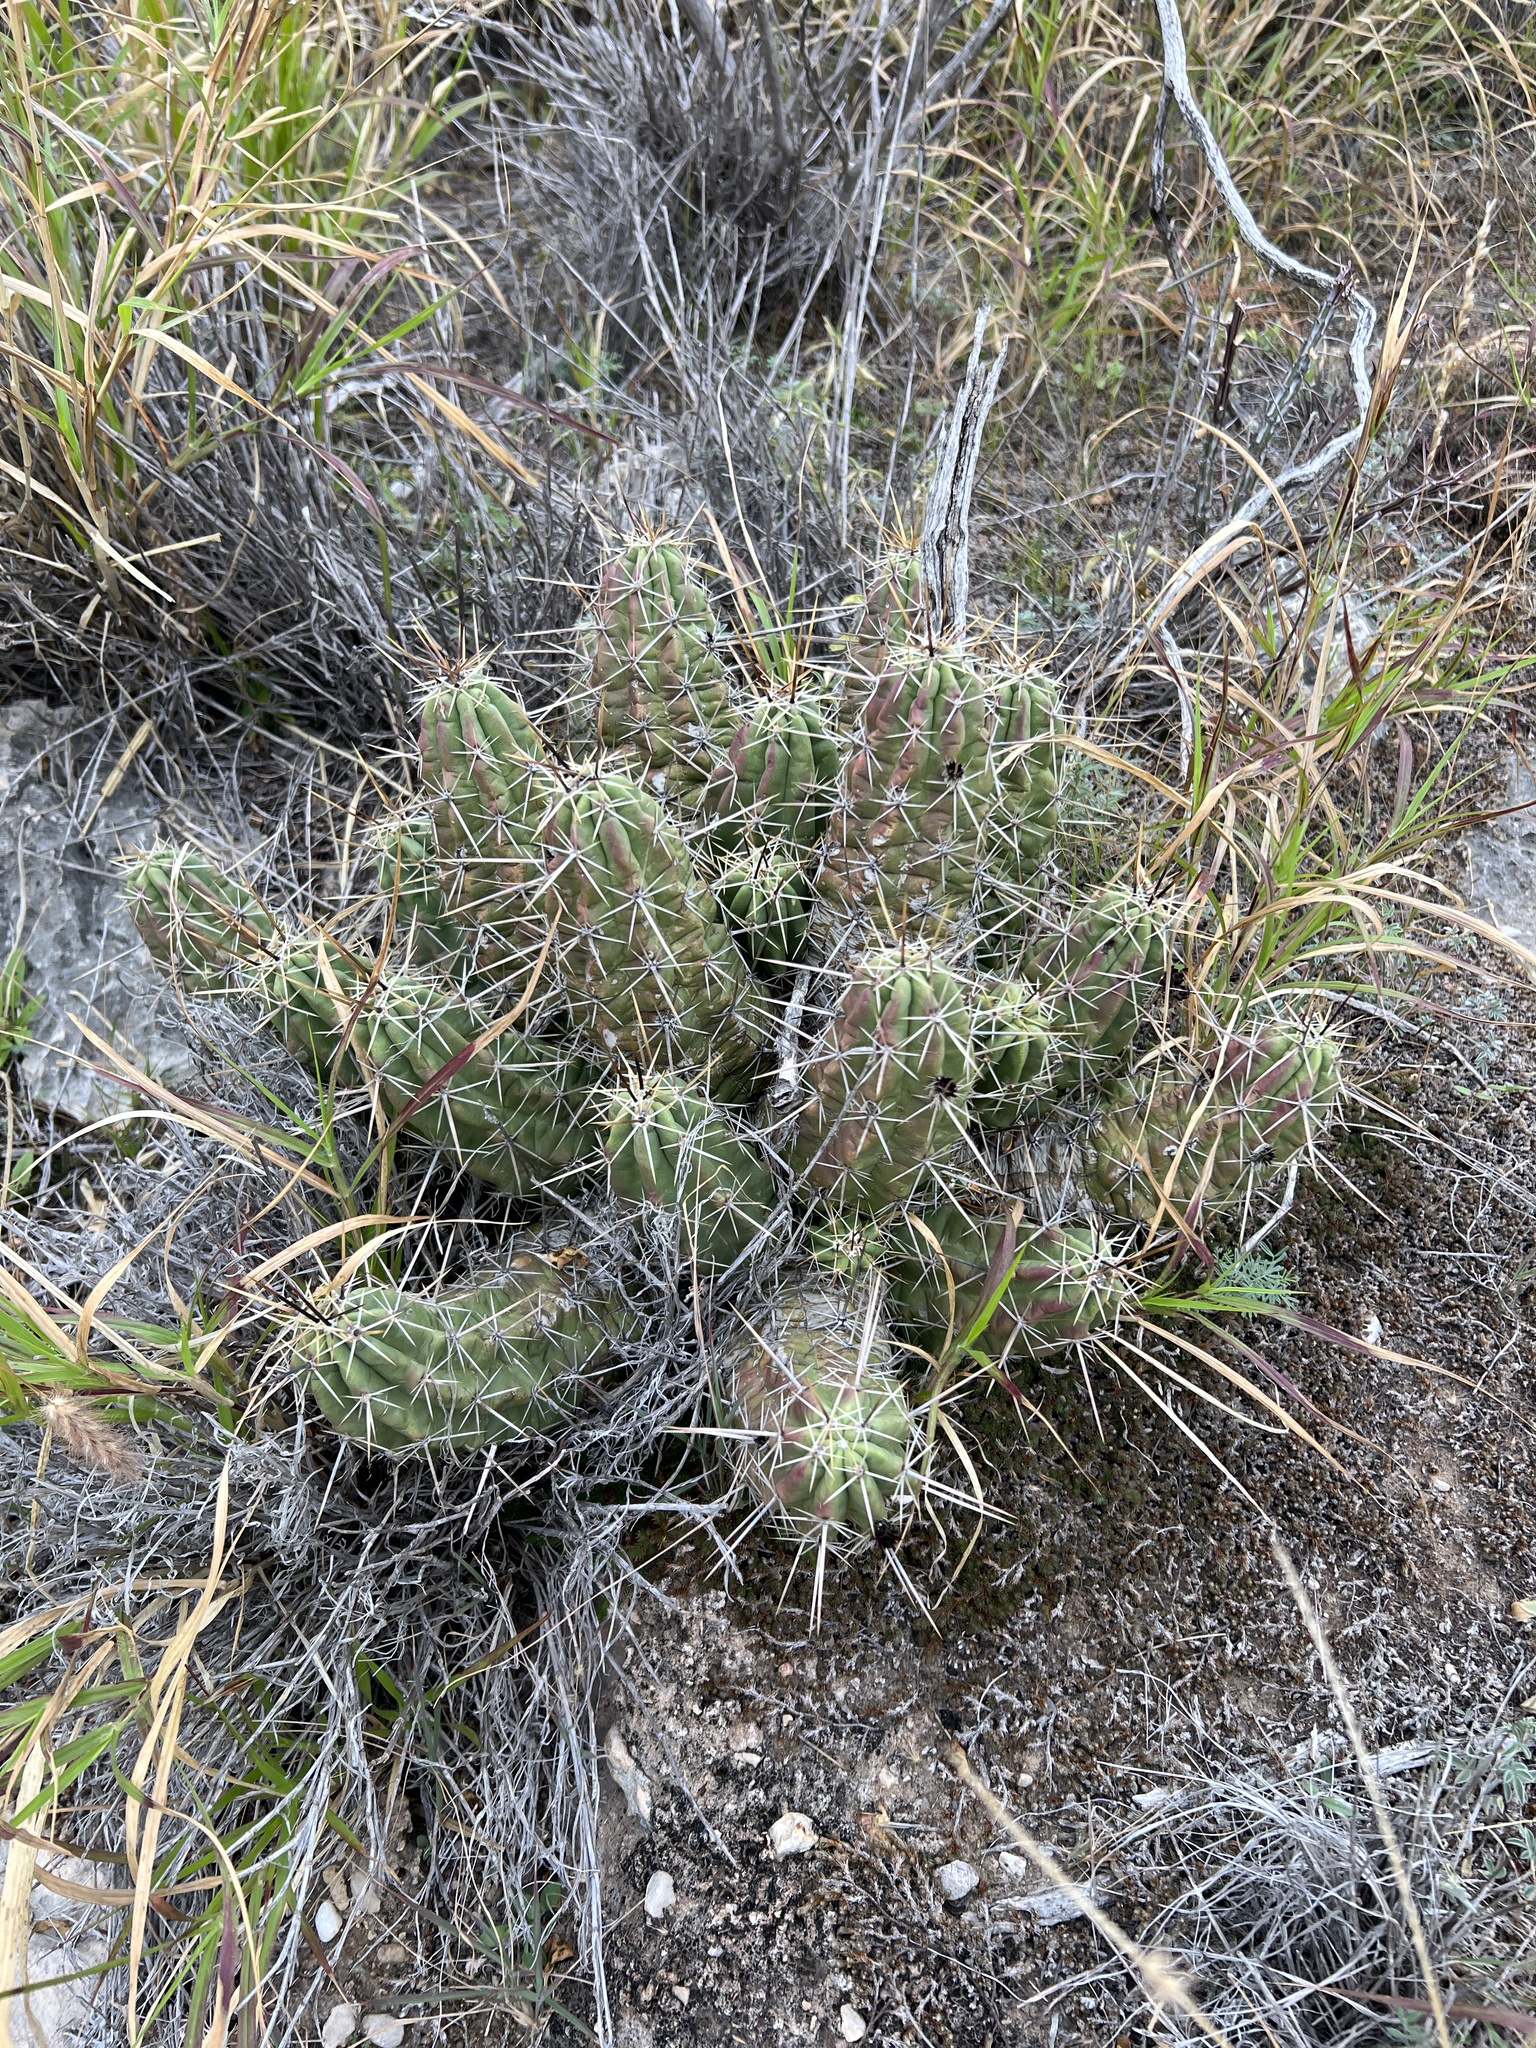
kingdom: Plantae
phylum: Tracheophyta
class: Magnoliopsida
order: Caryophyllales
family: Cactaceae
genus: Echinocereus
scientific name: Echinocereus enneacanthus
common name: Pitaya
